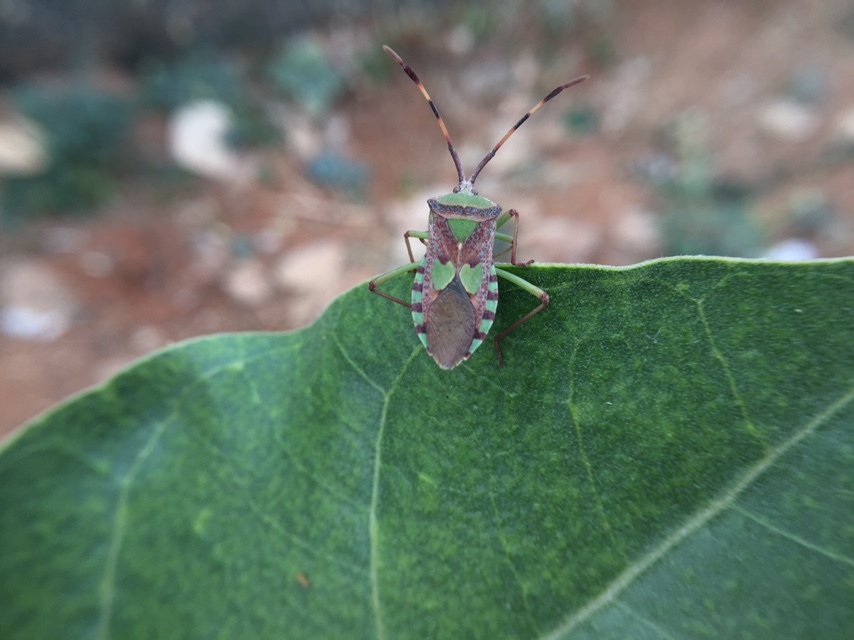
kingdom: Animalia
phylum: Arthropoda
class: Insecta
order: Hemiptera
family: Coreidae
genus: Prismatocerus
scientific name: Prismatocerus prominulus
